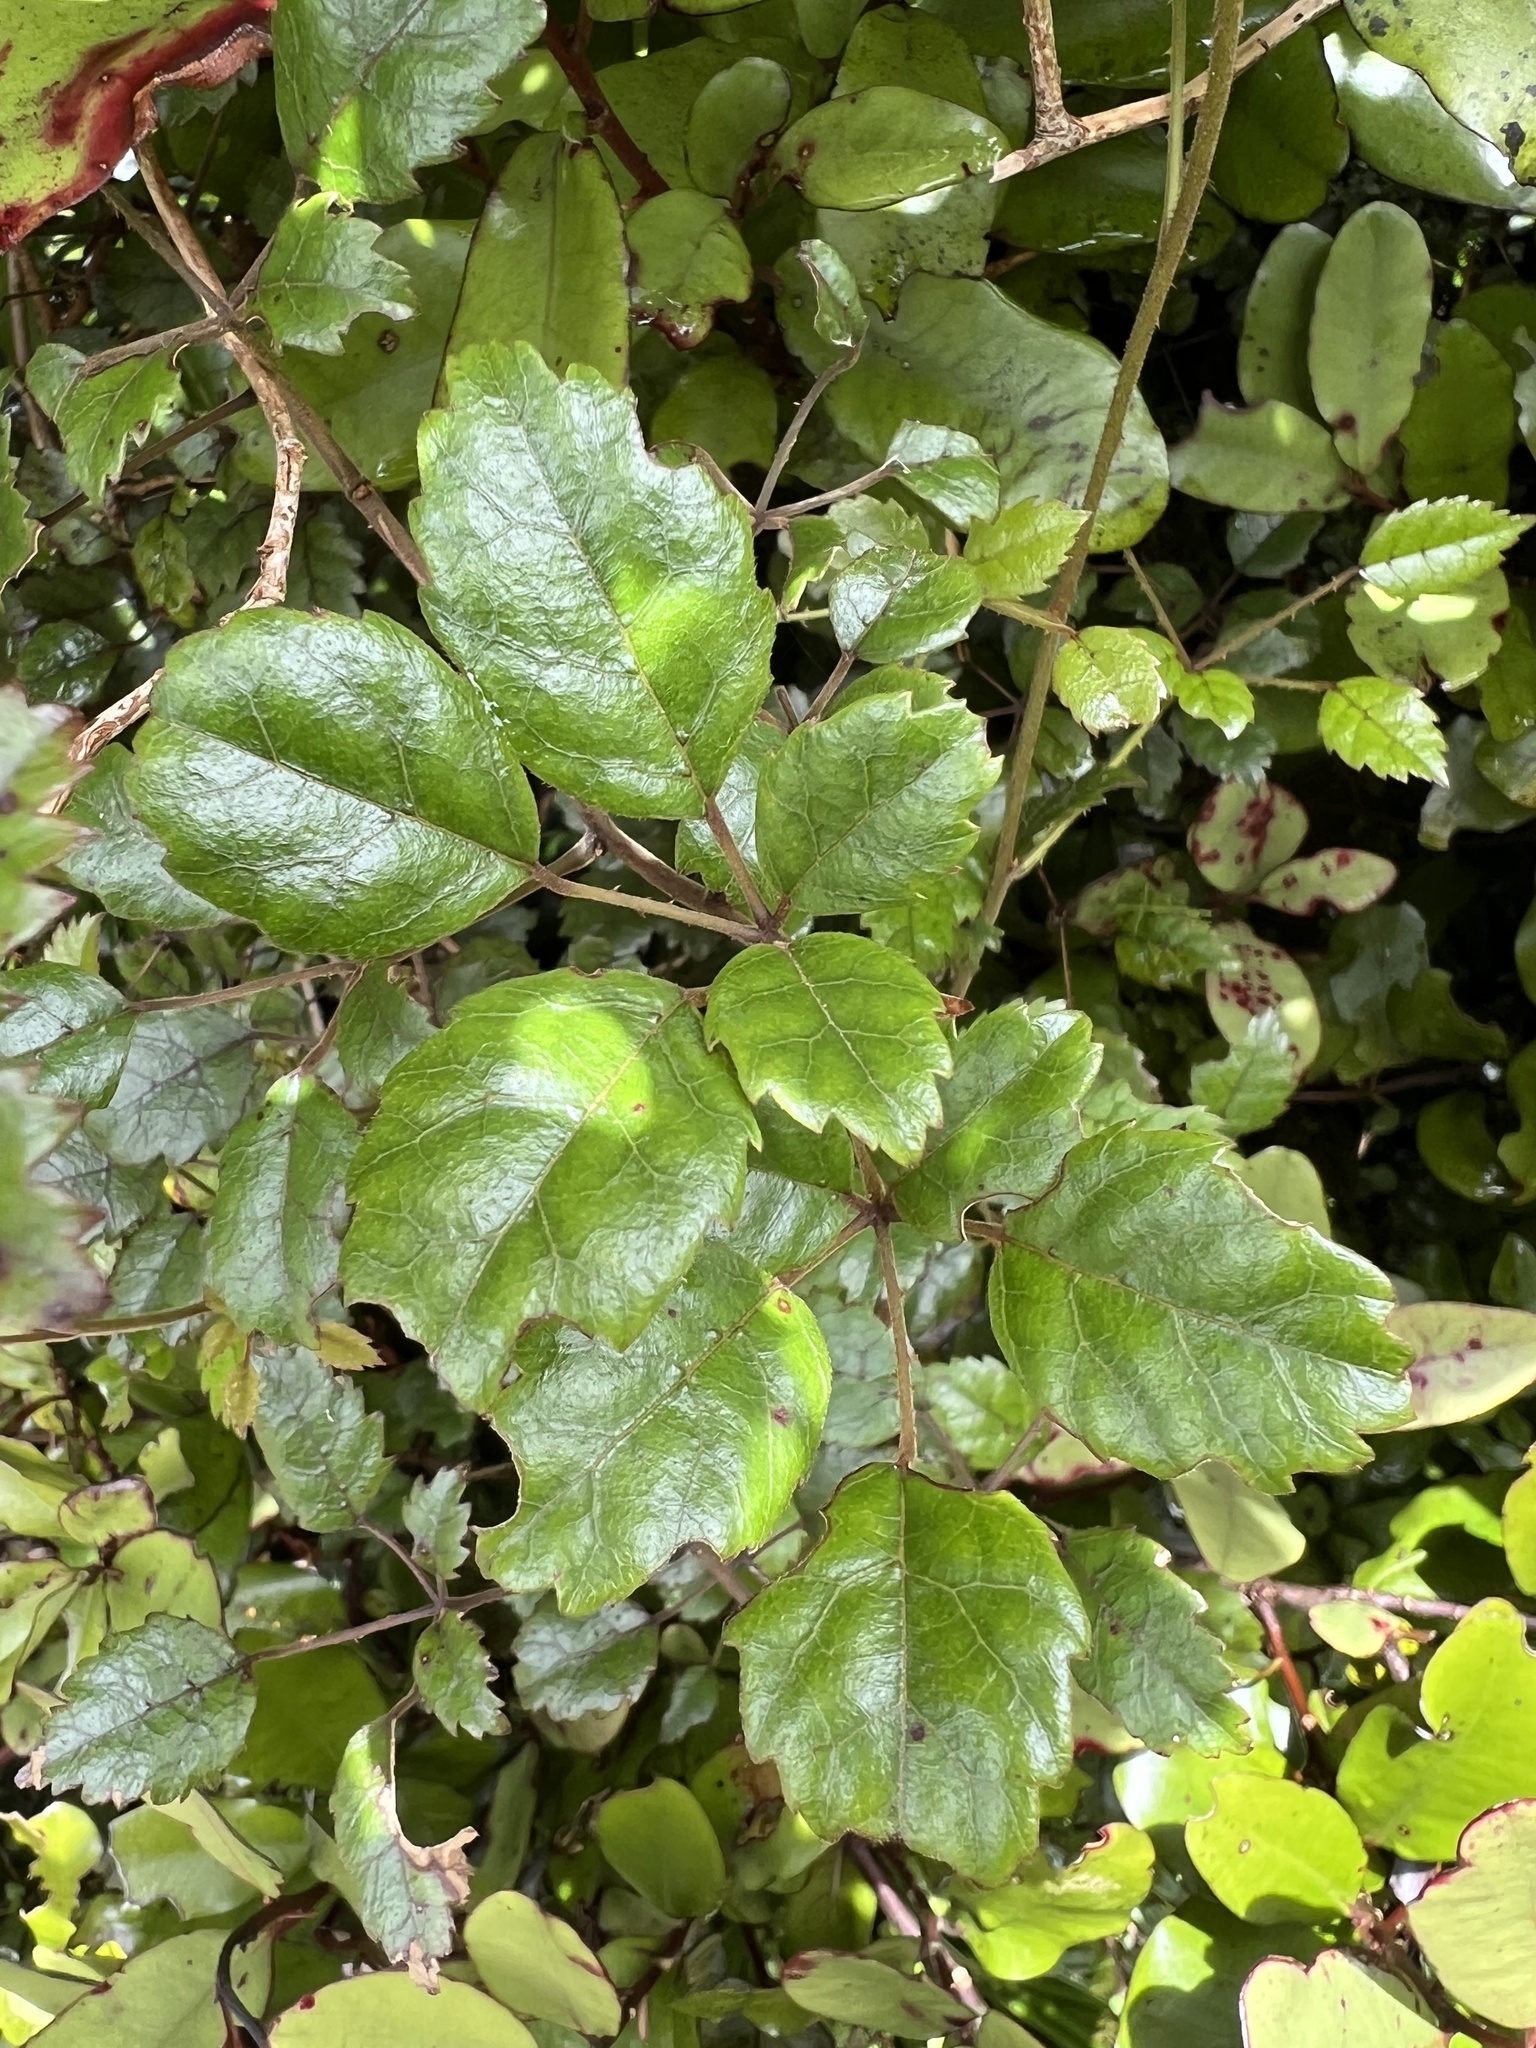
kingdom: Plantae
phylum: Tracheophyta
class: Magnoliopsida
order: Rosales
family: Rosaceae
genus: Rubus
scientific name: Rubus australis
